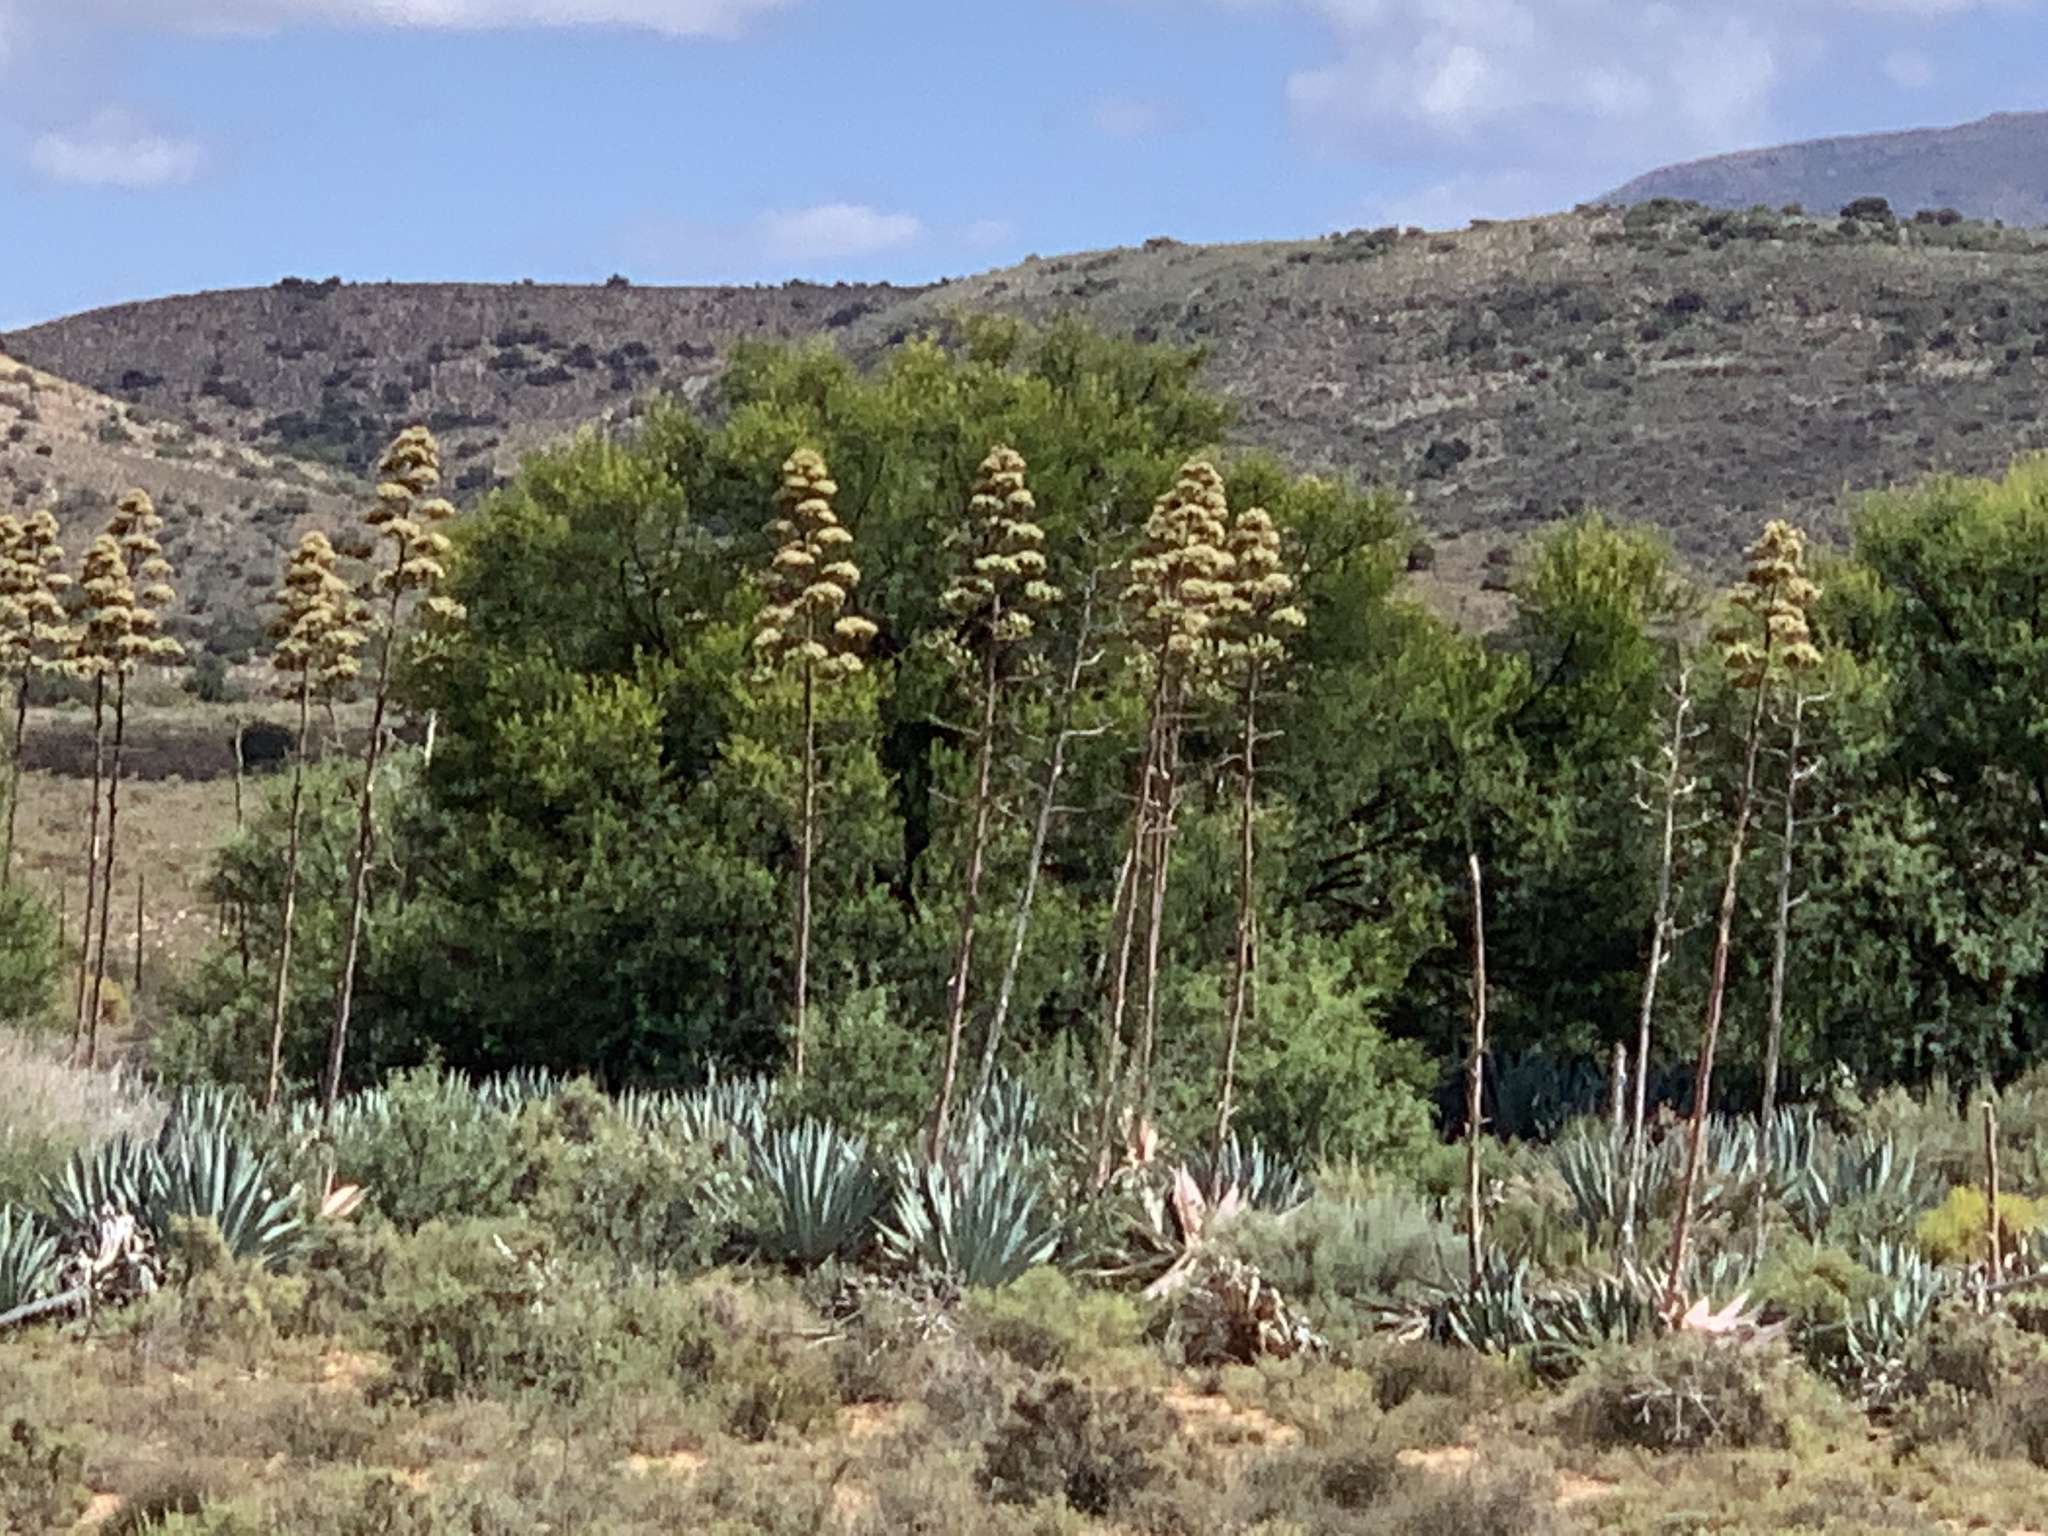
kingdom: Plantae
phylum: Tracheophyta
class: Liliopsida
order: Asparagales
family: Asparagaceae
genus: Agave
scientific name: Agave americana
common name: Centuryplant
